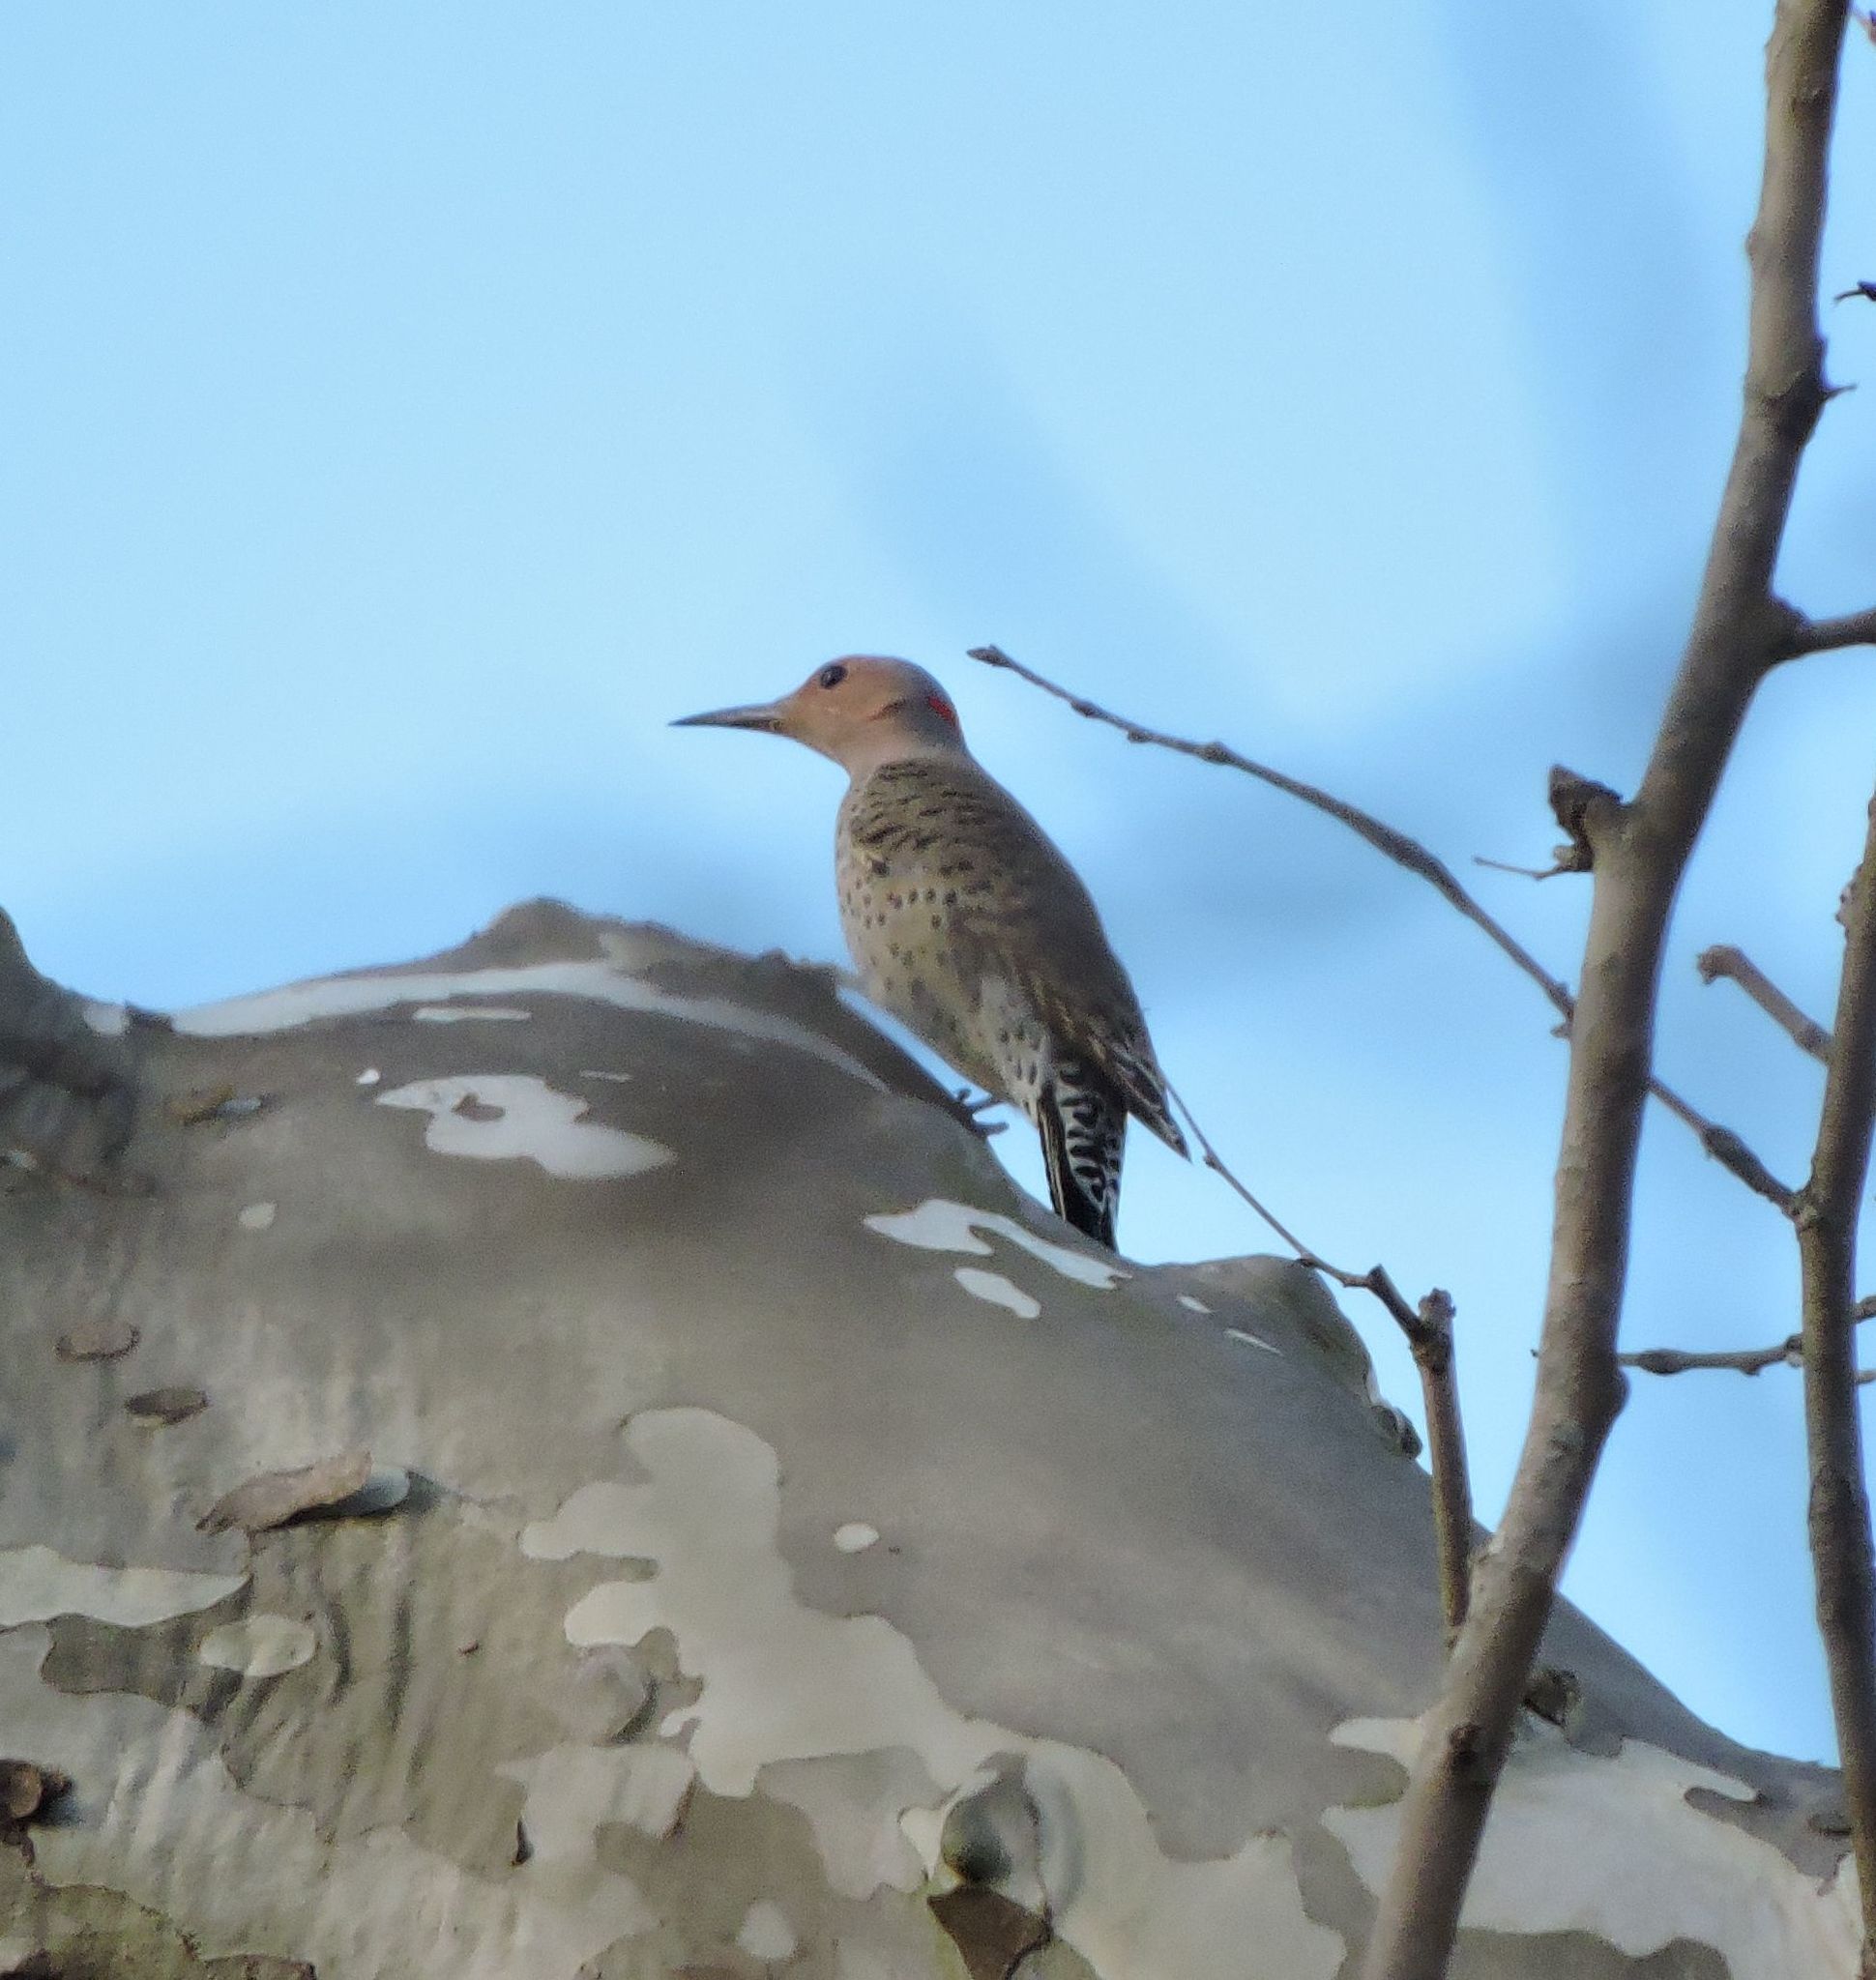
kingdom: Animalia
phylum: Chordata
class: Aves
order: Piciformes
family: Picidae
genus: Colaptes
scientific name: Colaptes auratus
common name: Northern flicker
